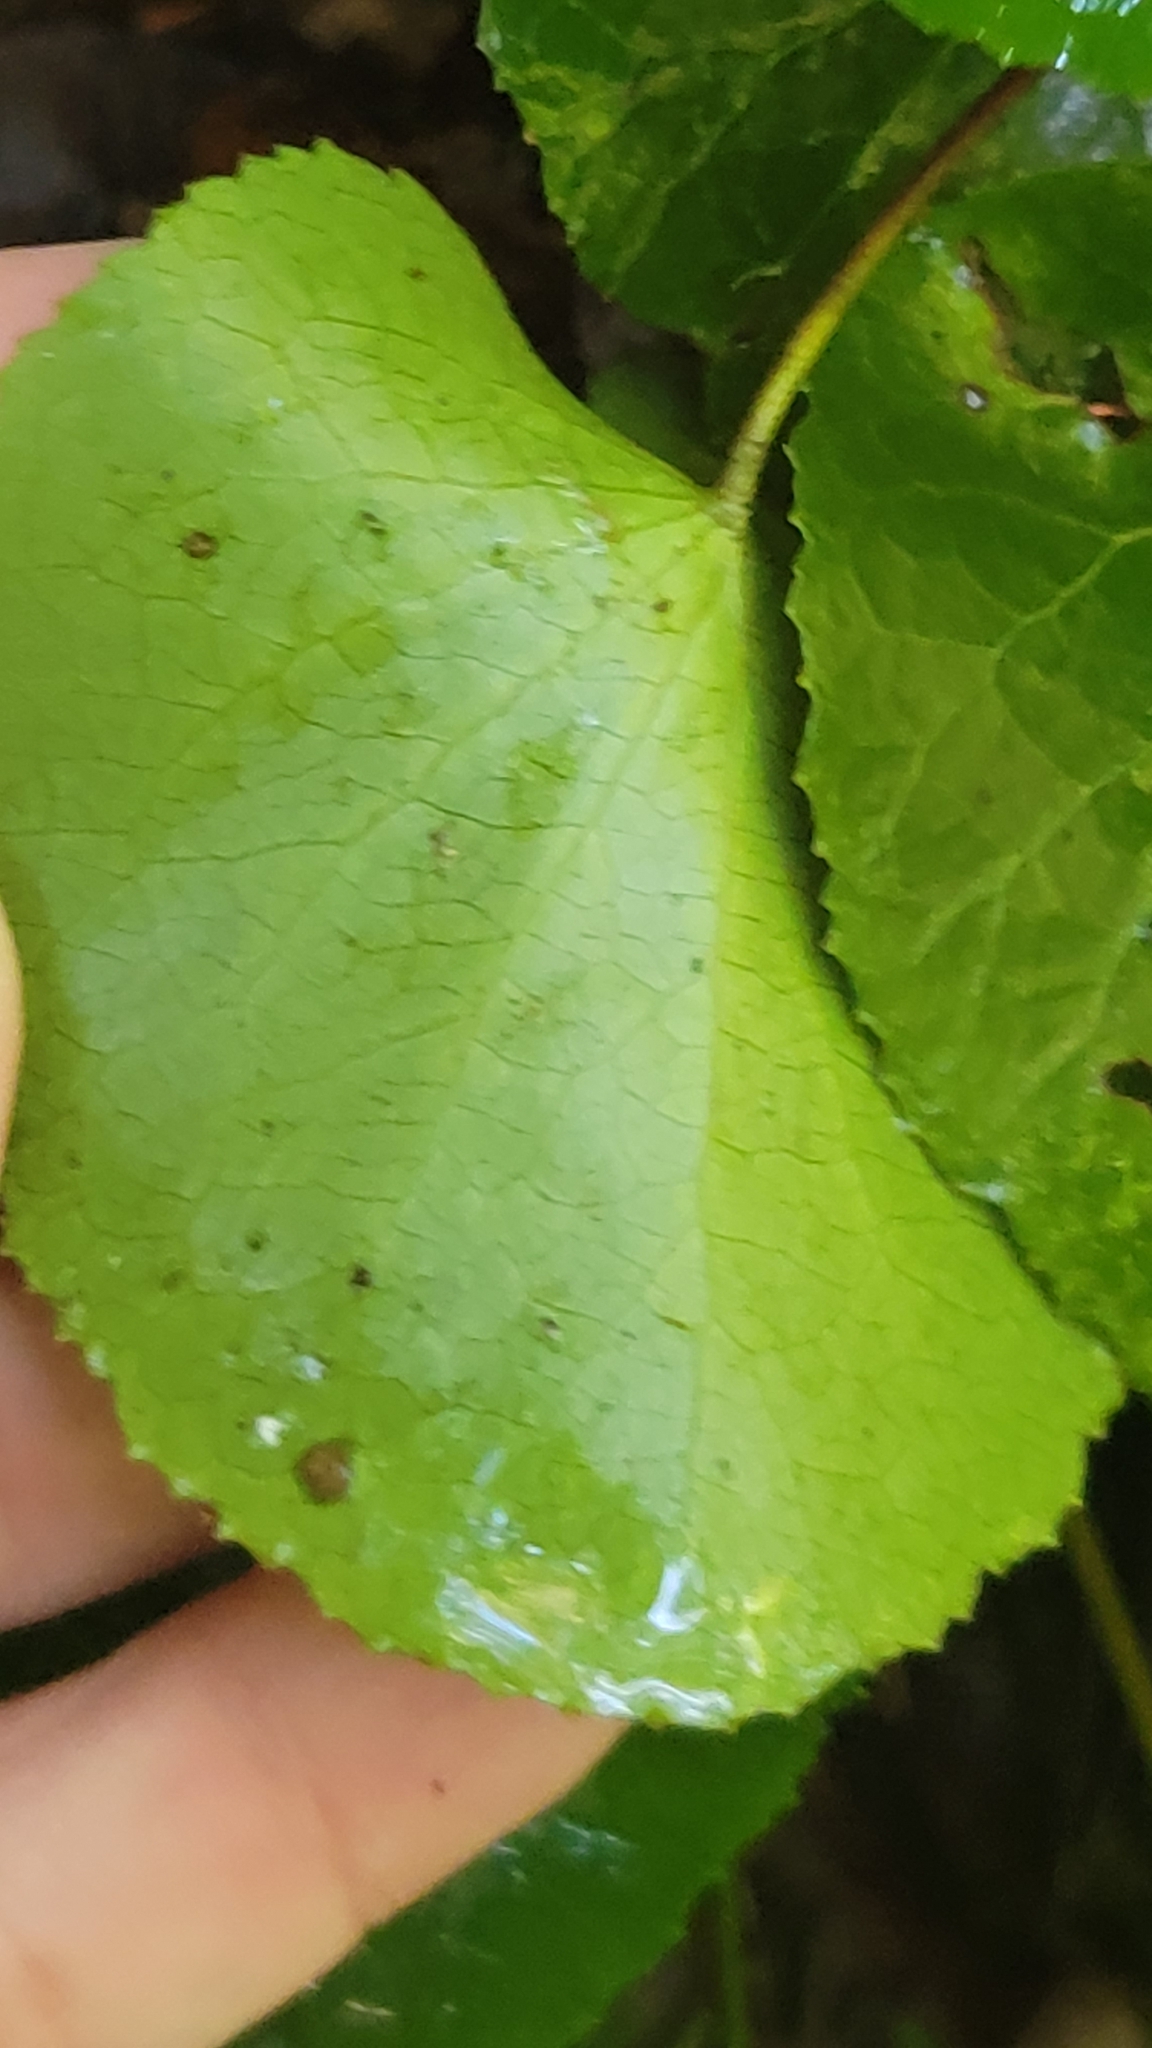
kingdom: Plantae
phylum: Tracheophyta
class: Magnoliopsida
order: Ericales
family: Diapensiaceae
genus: Galax
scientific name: Galax urceolata
